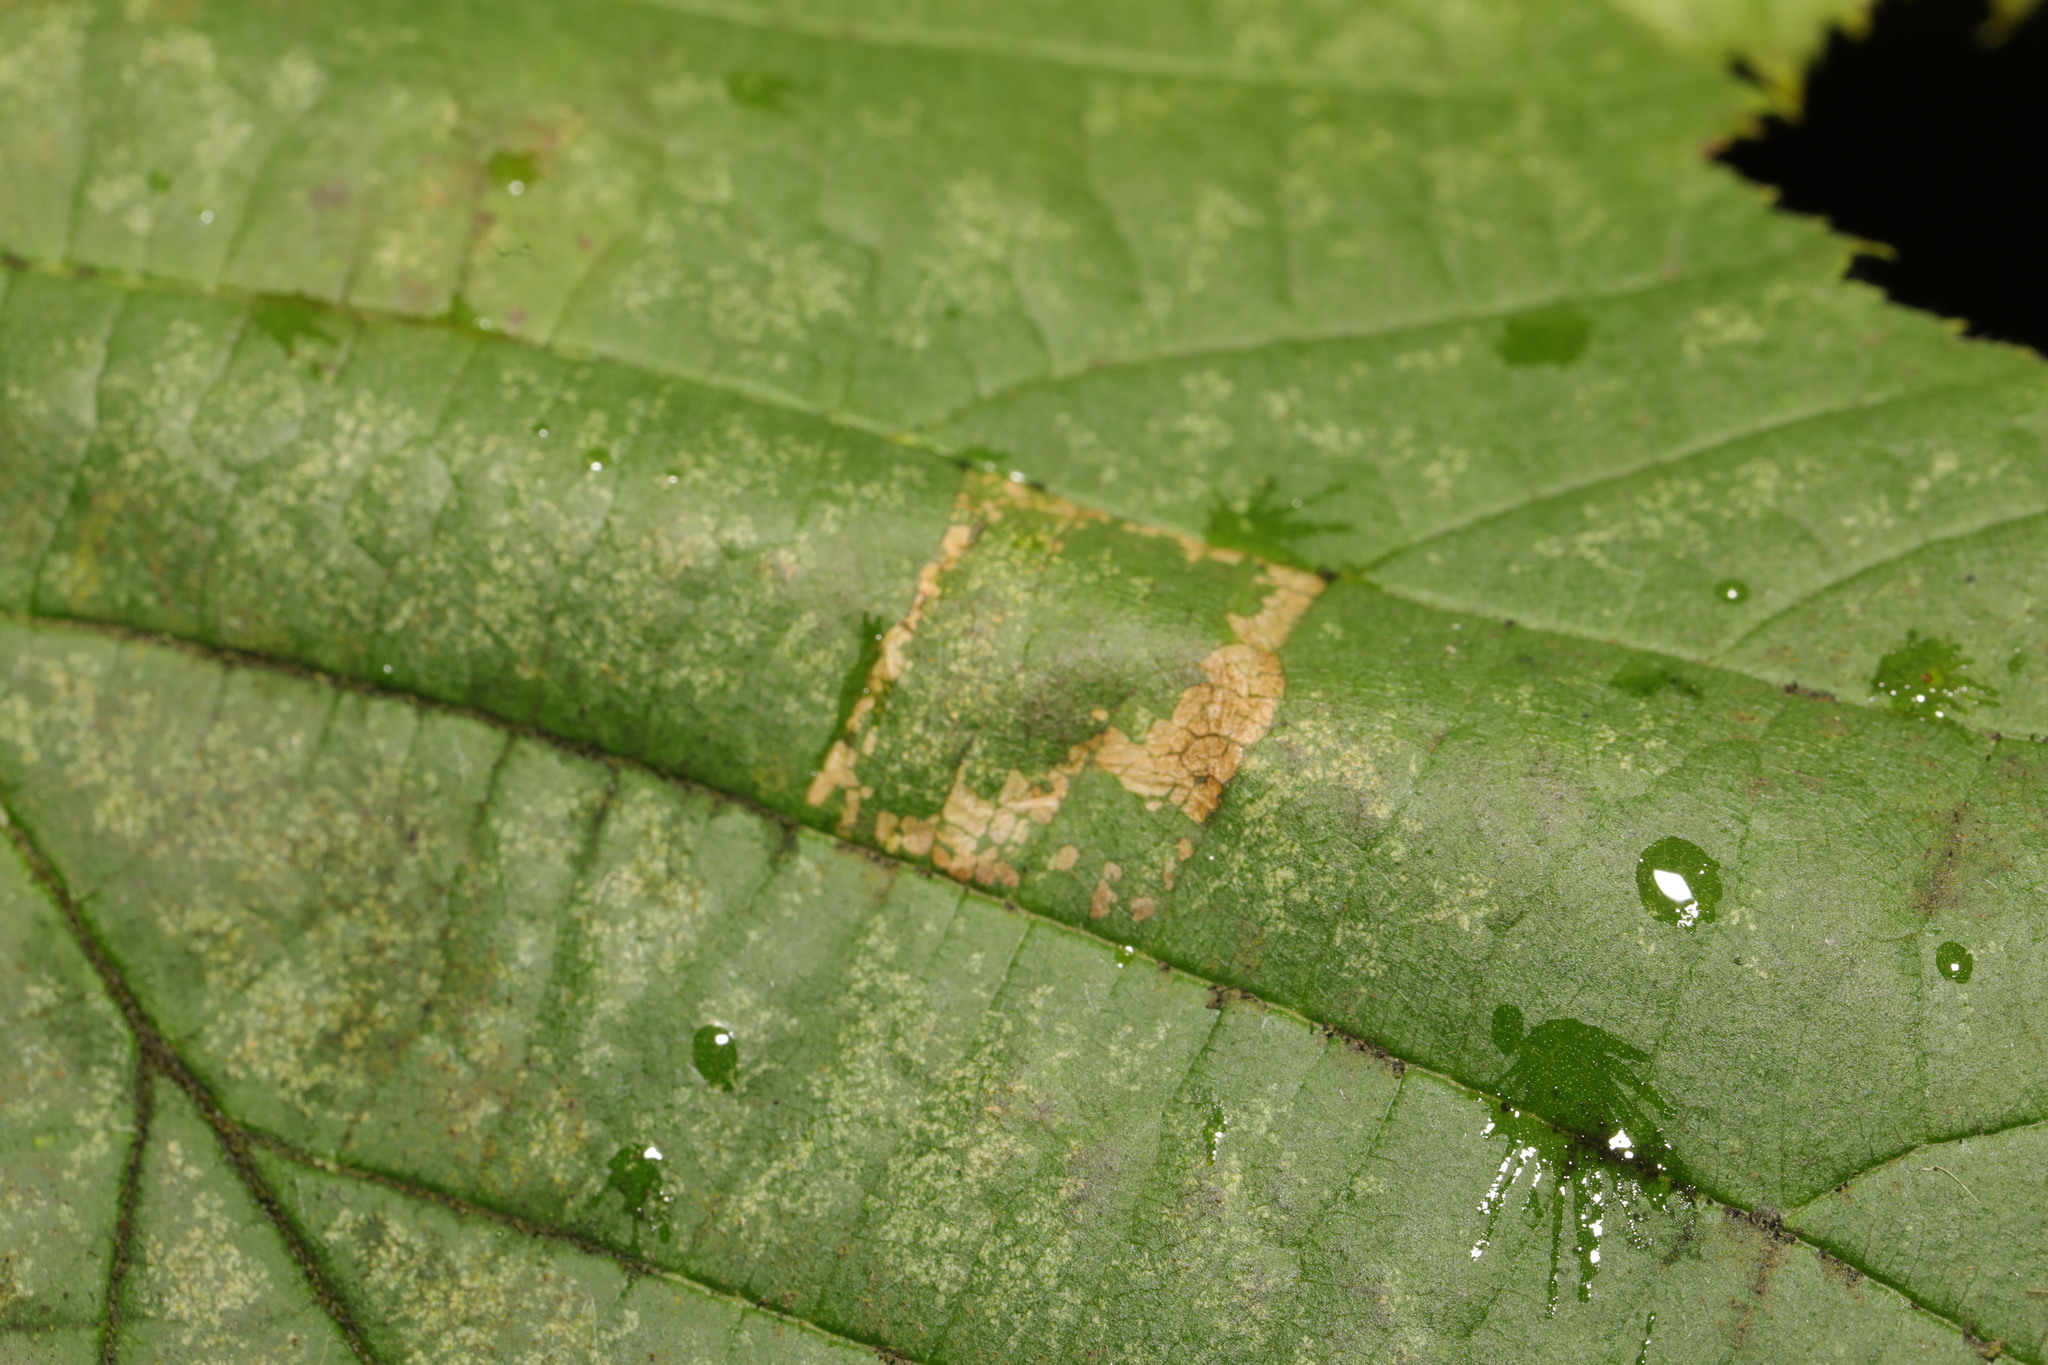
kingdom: Animalia
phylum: Arthropoda
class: Insecta
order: Lepidoptera
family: Gracillariidae
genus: Phyllonorycter
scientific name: Phyllonorycter nicellii
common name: Red hazel midget
